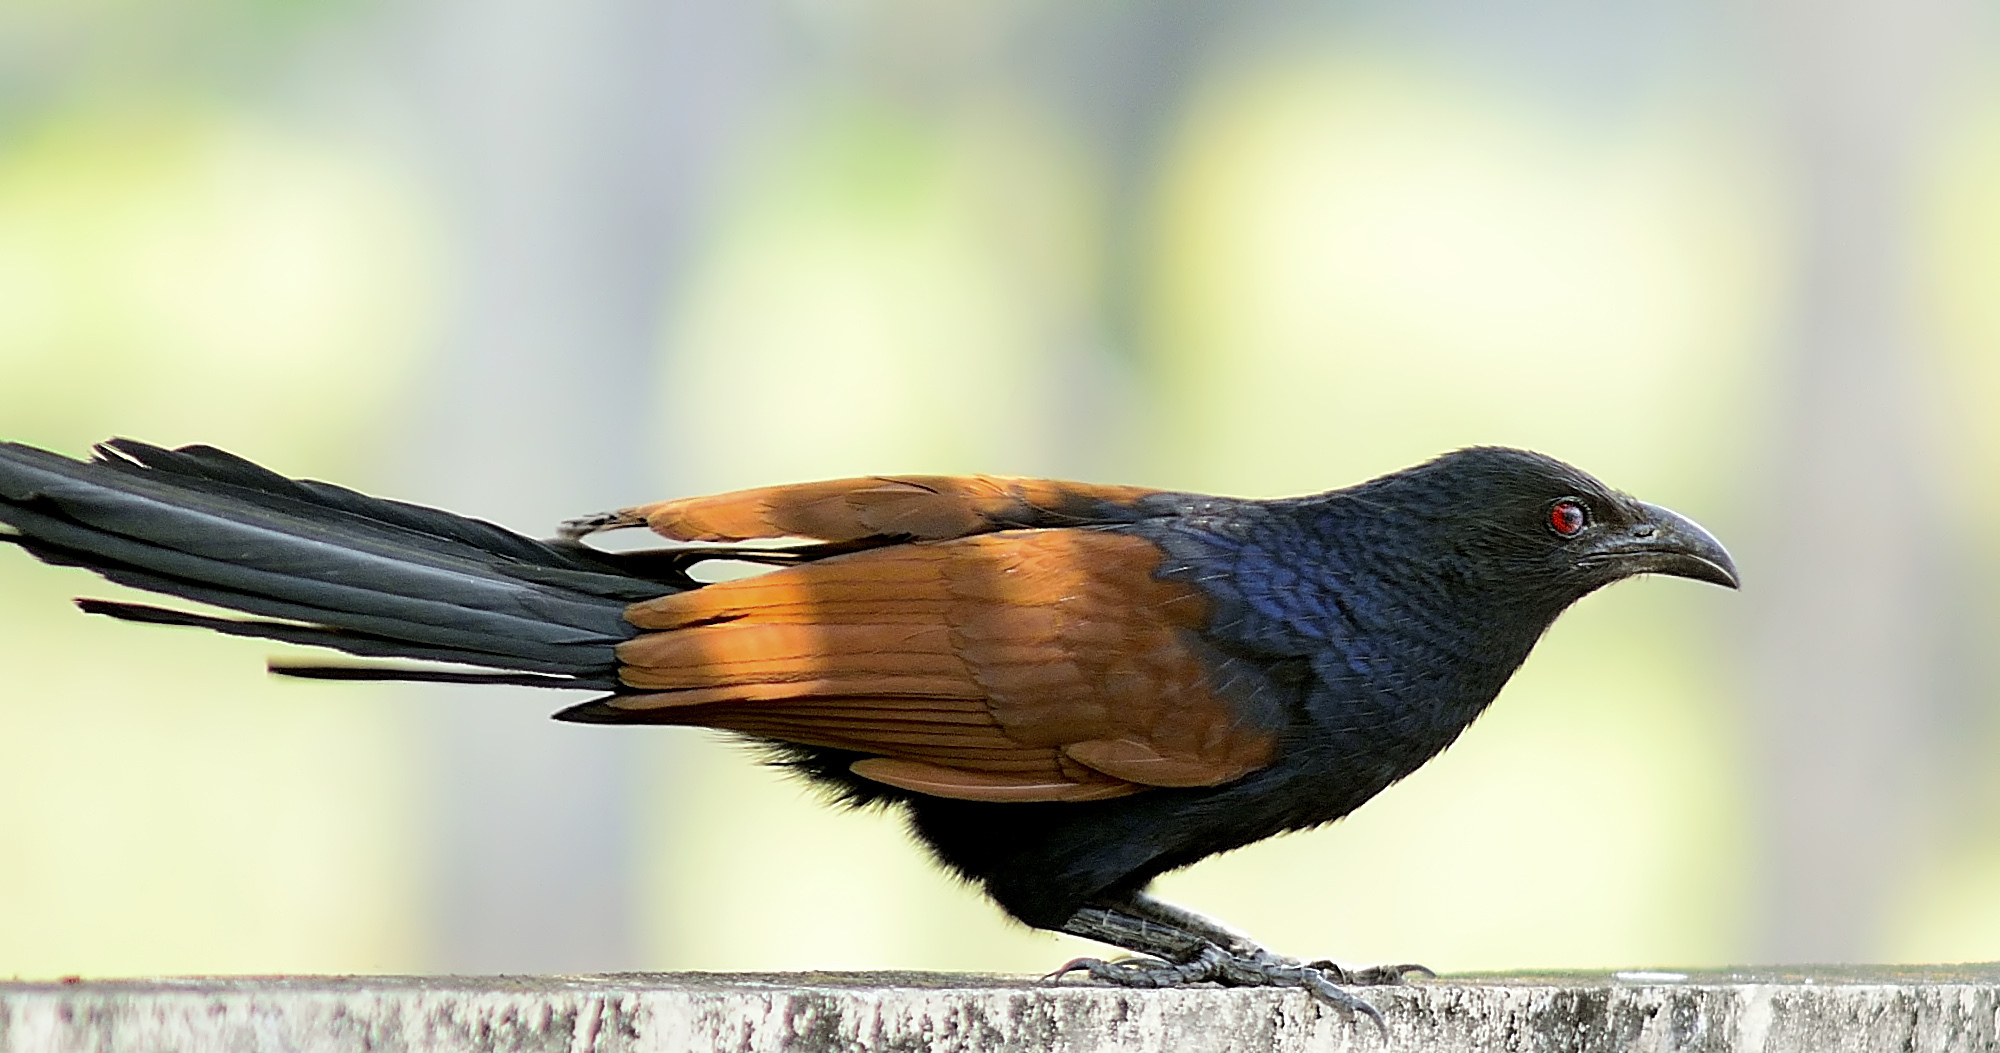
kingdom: Animalia
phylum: Chordata
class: Aves
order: Cuculiformes
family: Cuculidae
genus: Centropus
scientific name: Centropus sinensis
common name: Greater coucal
